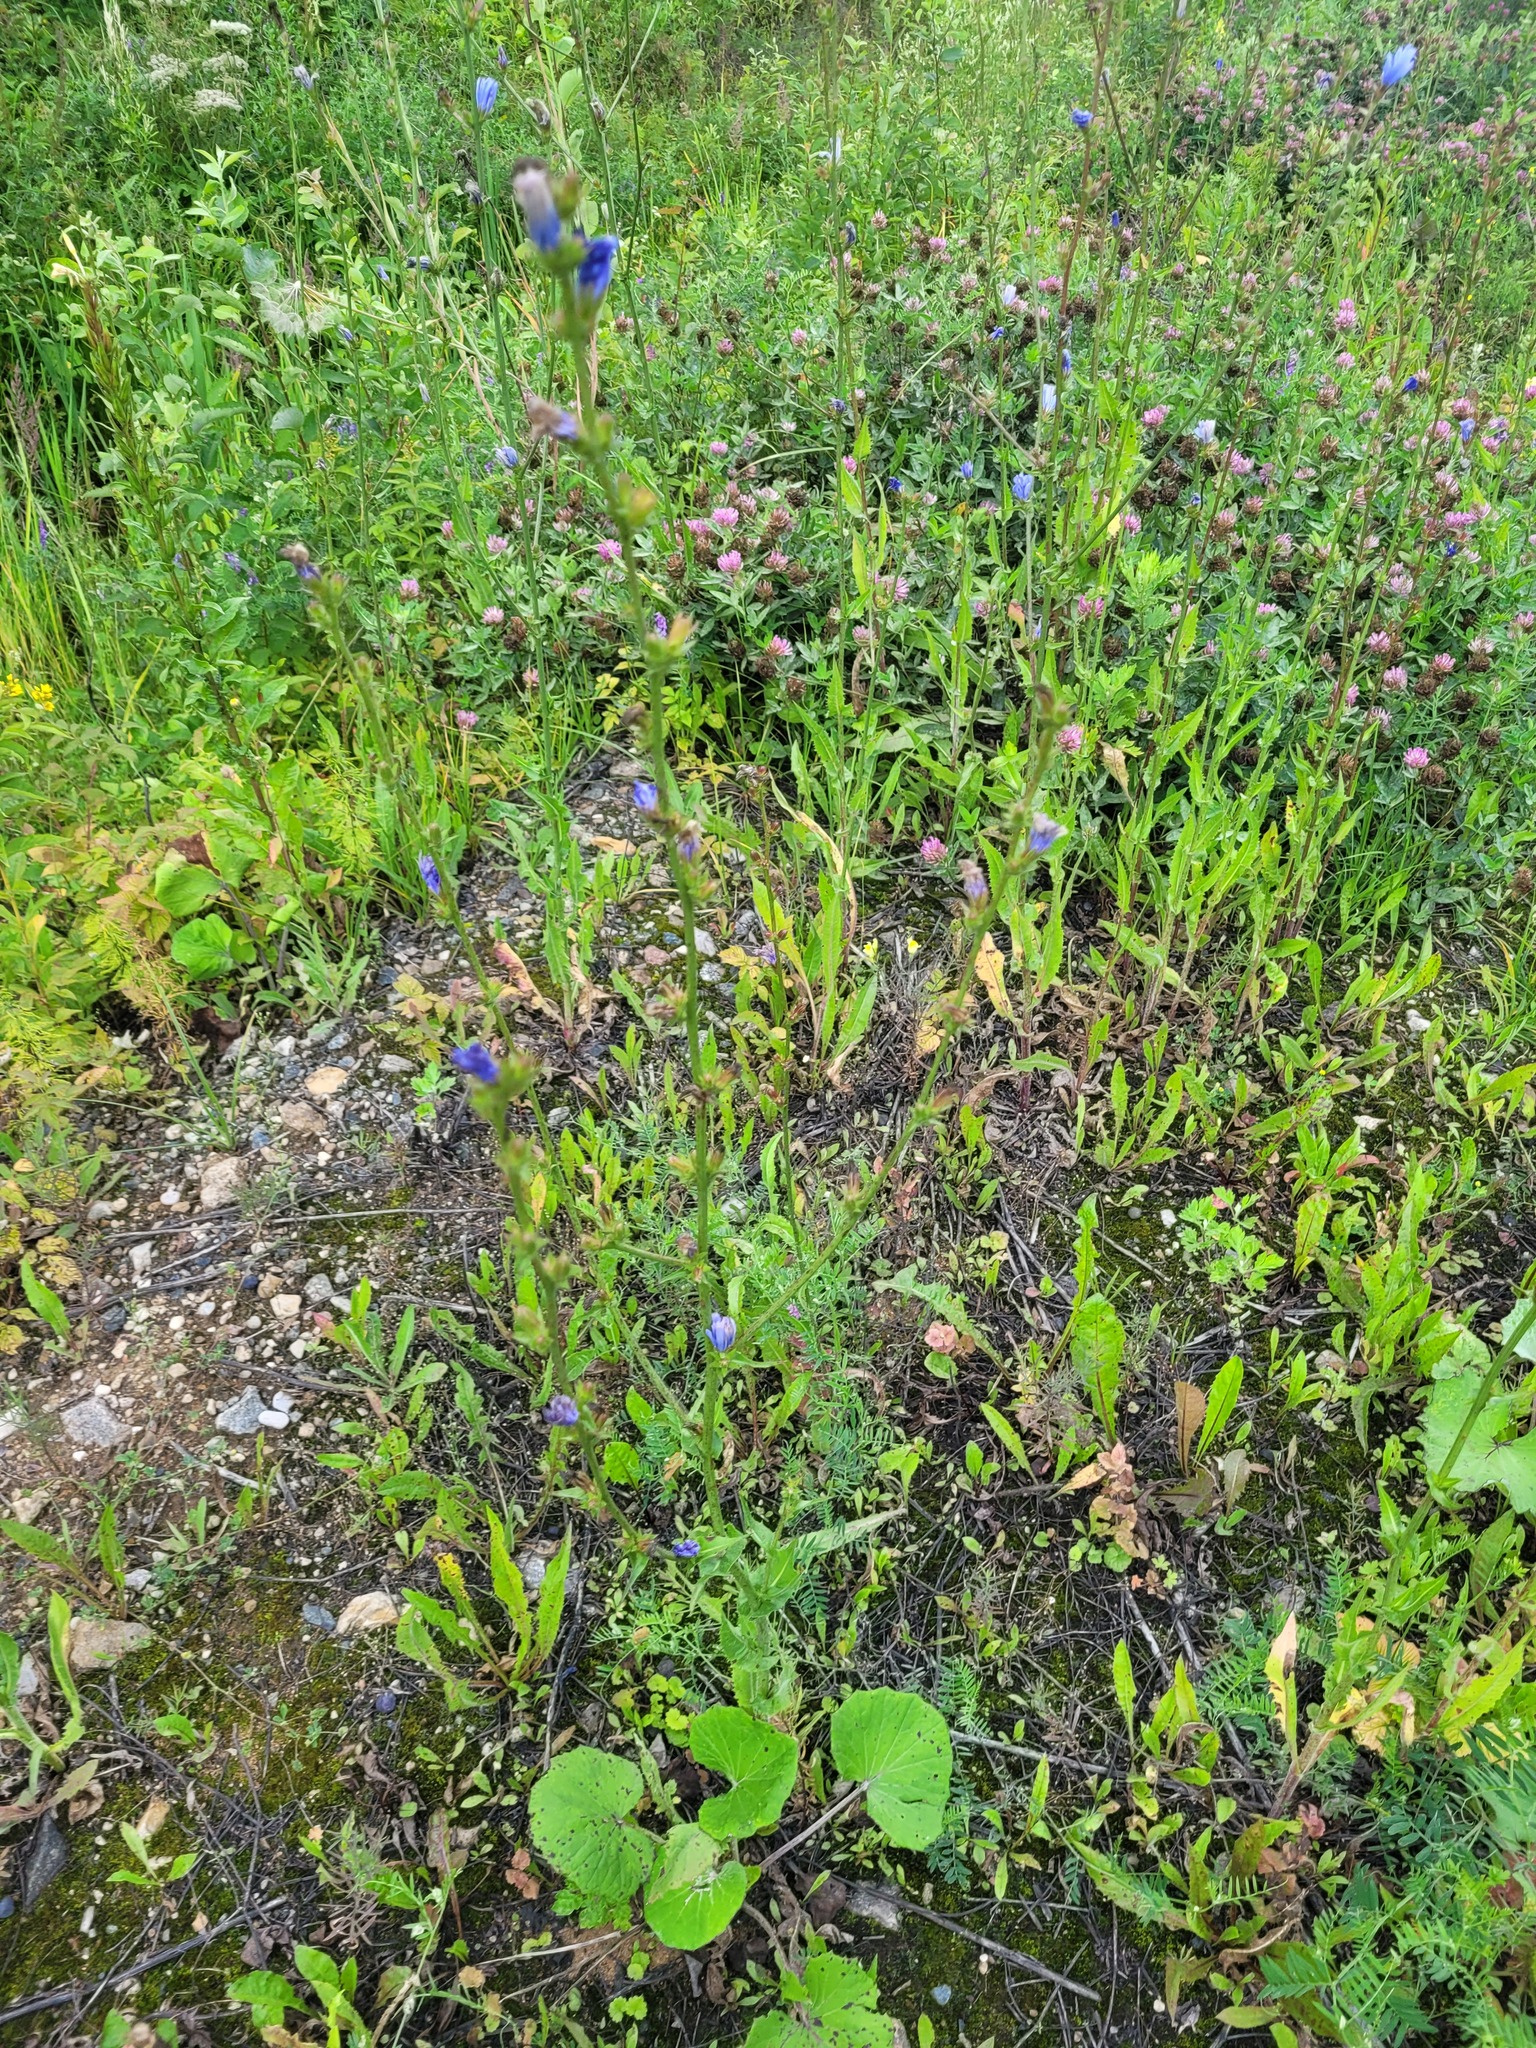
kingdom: Plantae
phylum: Tracheophyta
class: Magnoliopsida
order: Asterales
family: Asteraceae
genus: Cichorium
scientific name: Cichorium intybus
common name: Chicory
